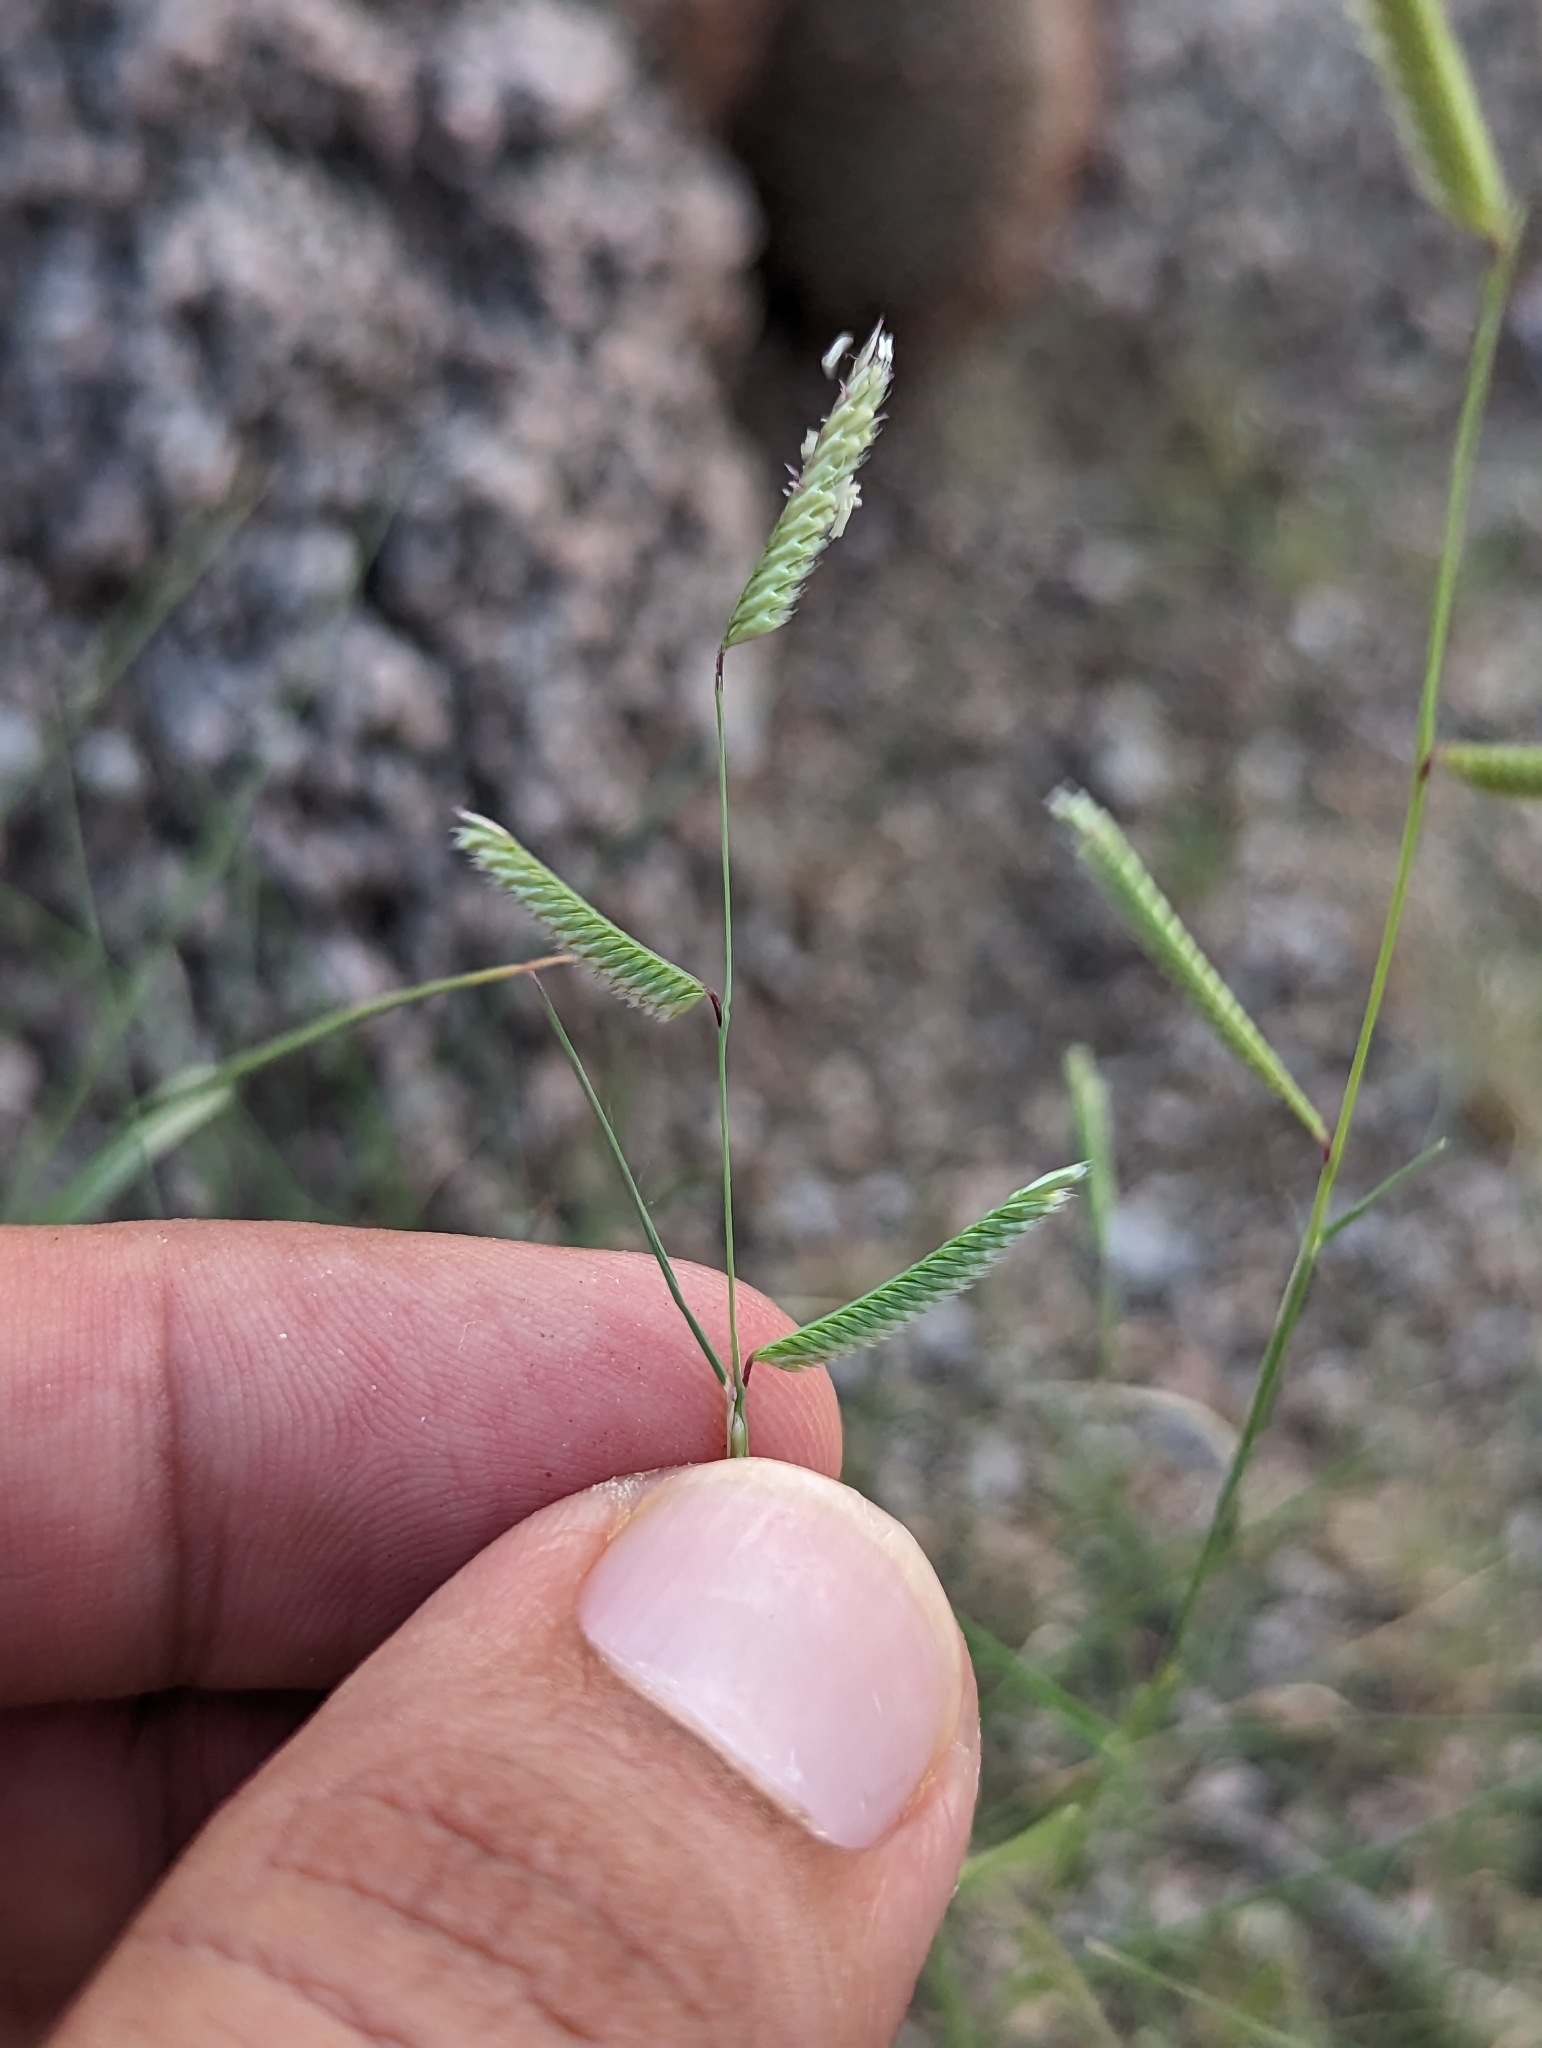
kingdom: Plantae
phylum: Tracheophyta
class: Liliopsida
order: Poales
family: Poaceae
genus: Bouteloua
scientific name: Bouteloua barbata
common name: Six-weeks grama
